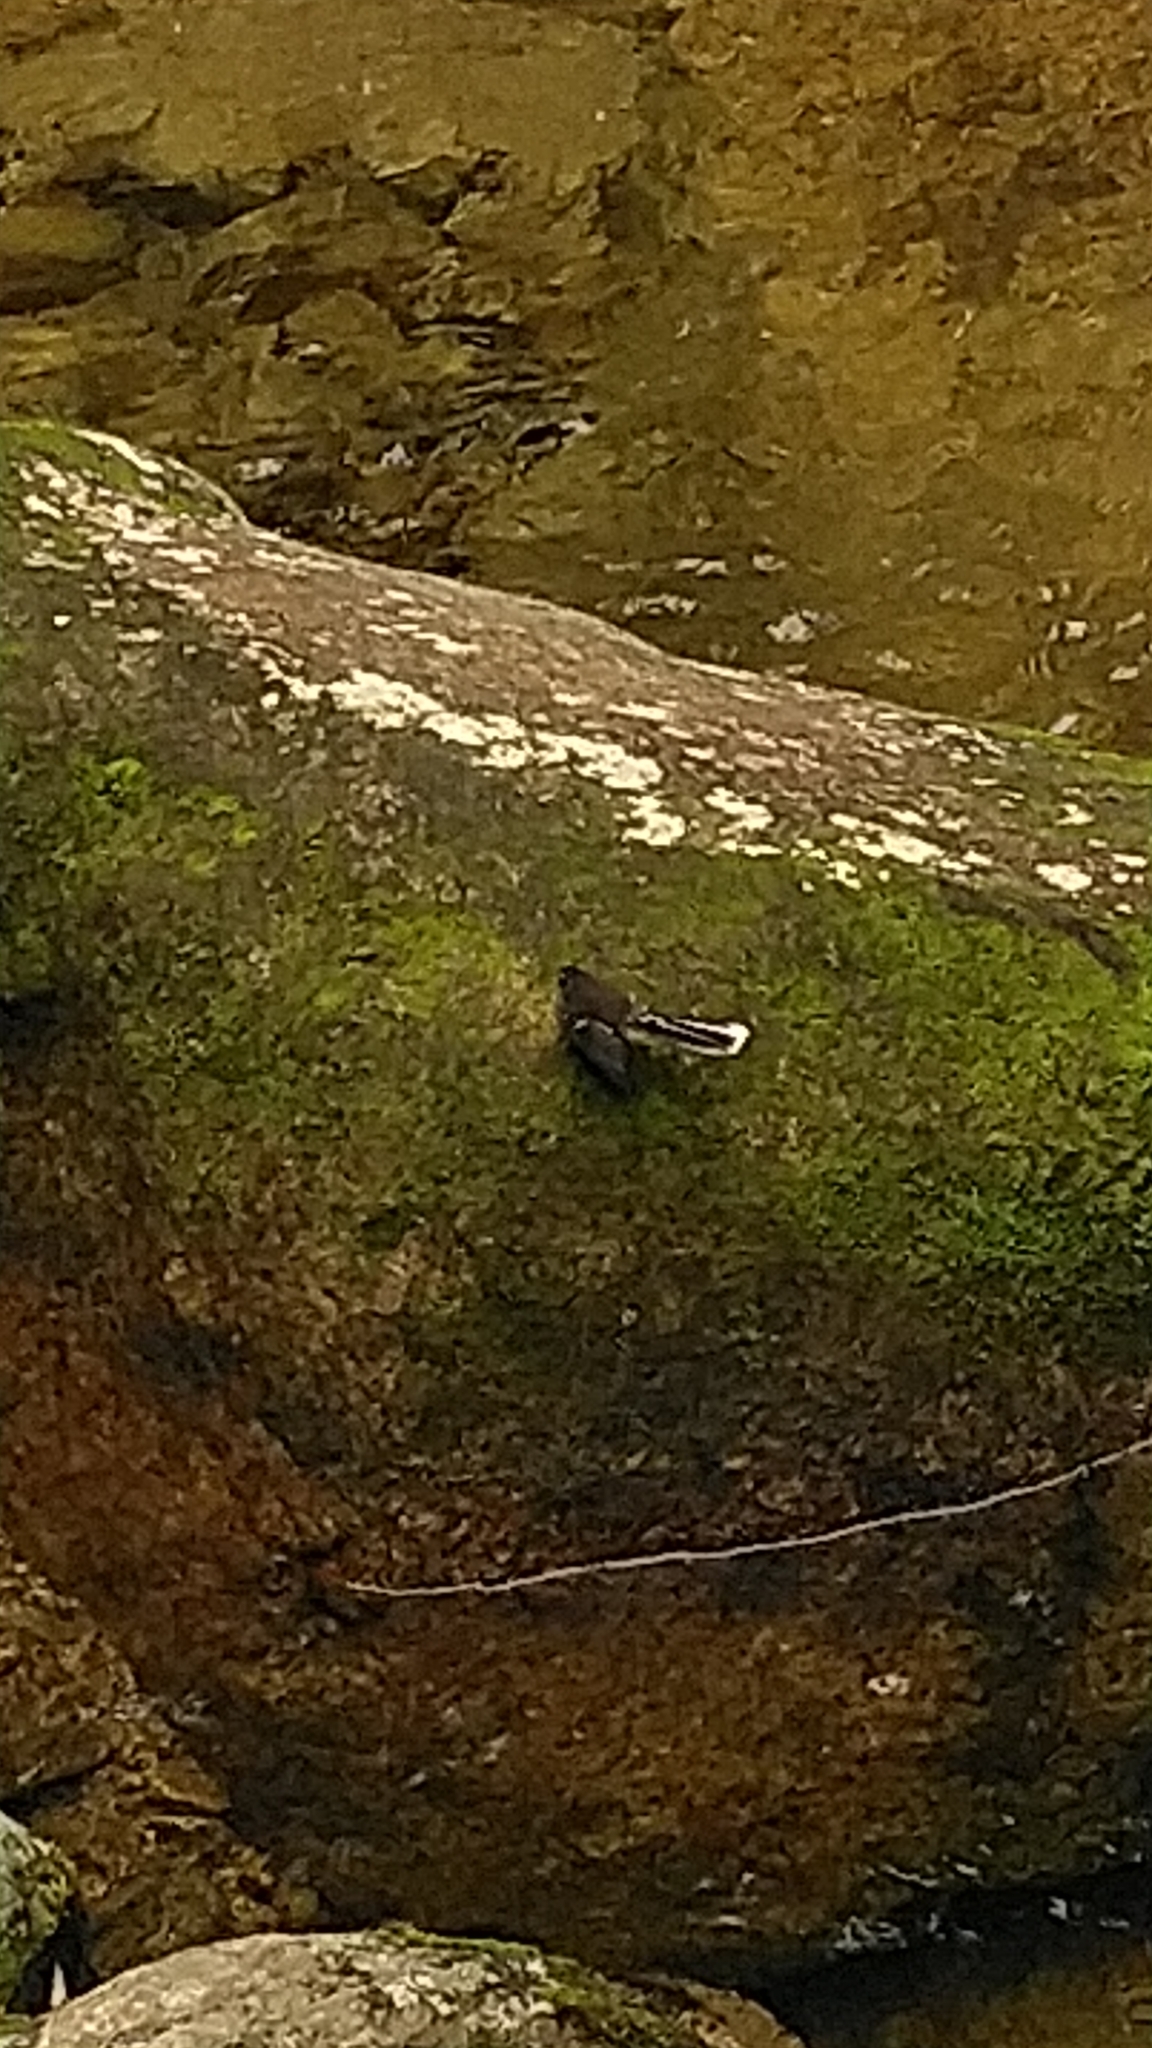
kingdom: Animalia
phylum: Chordata
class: Aves
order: Passeriformes
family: Rhipiduridae
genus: Rhipidura
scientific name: Rhipidura fuliginosa
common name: New zealand fantail
